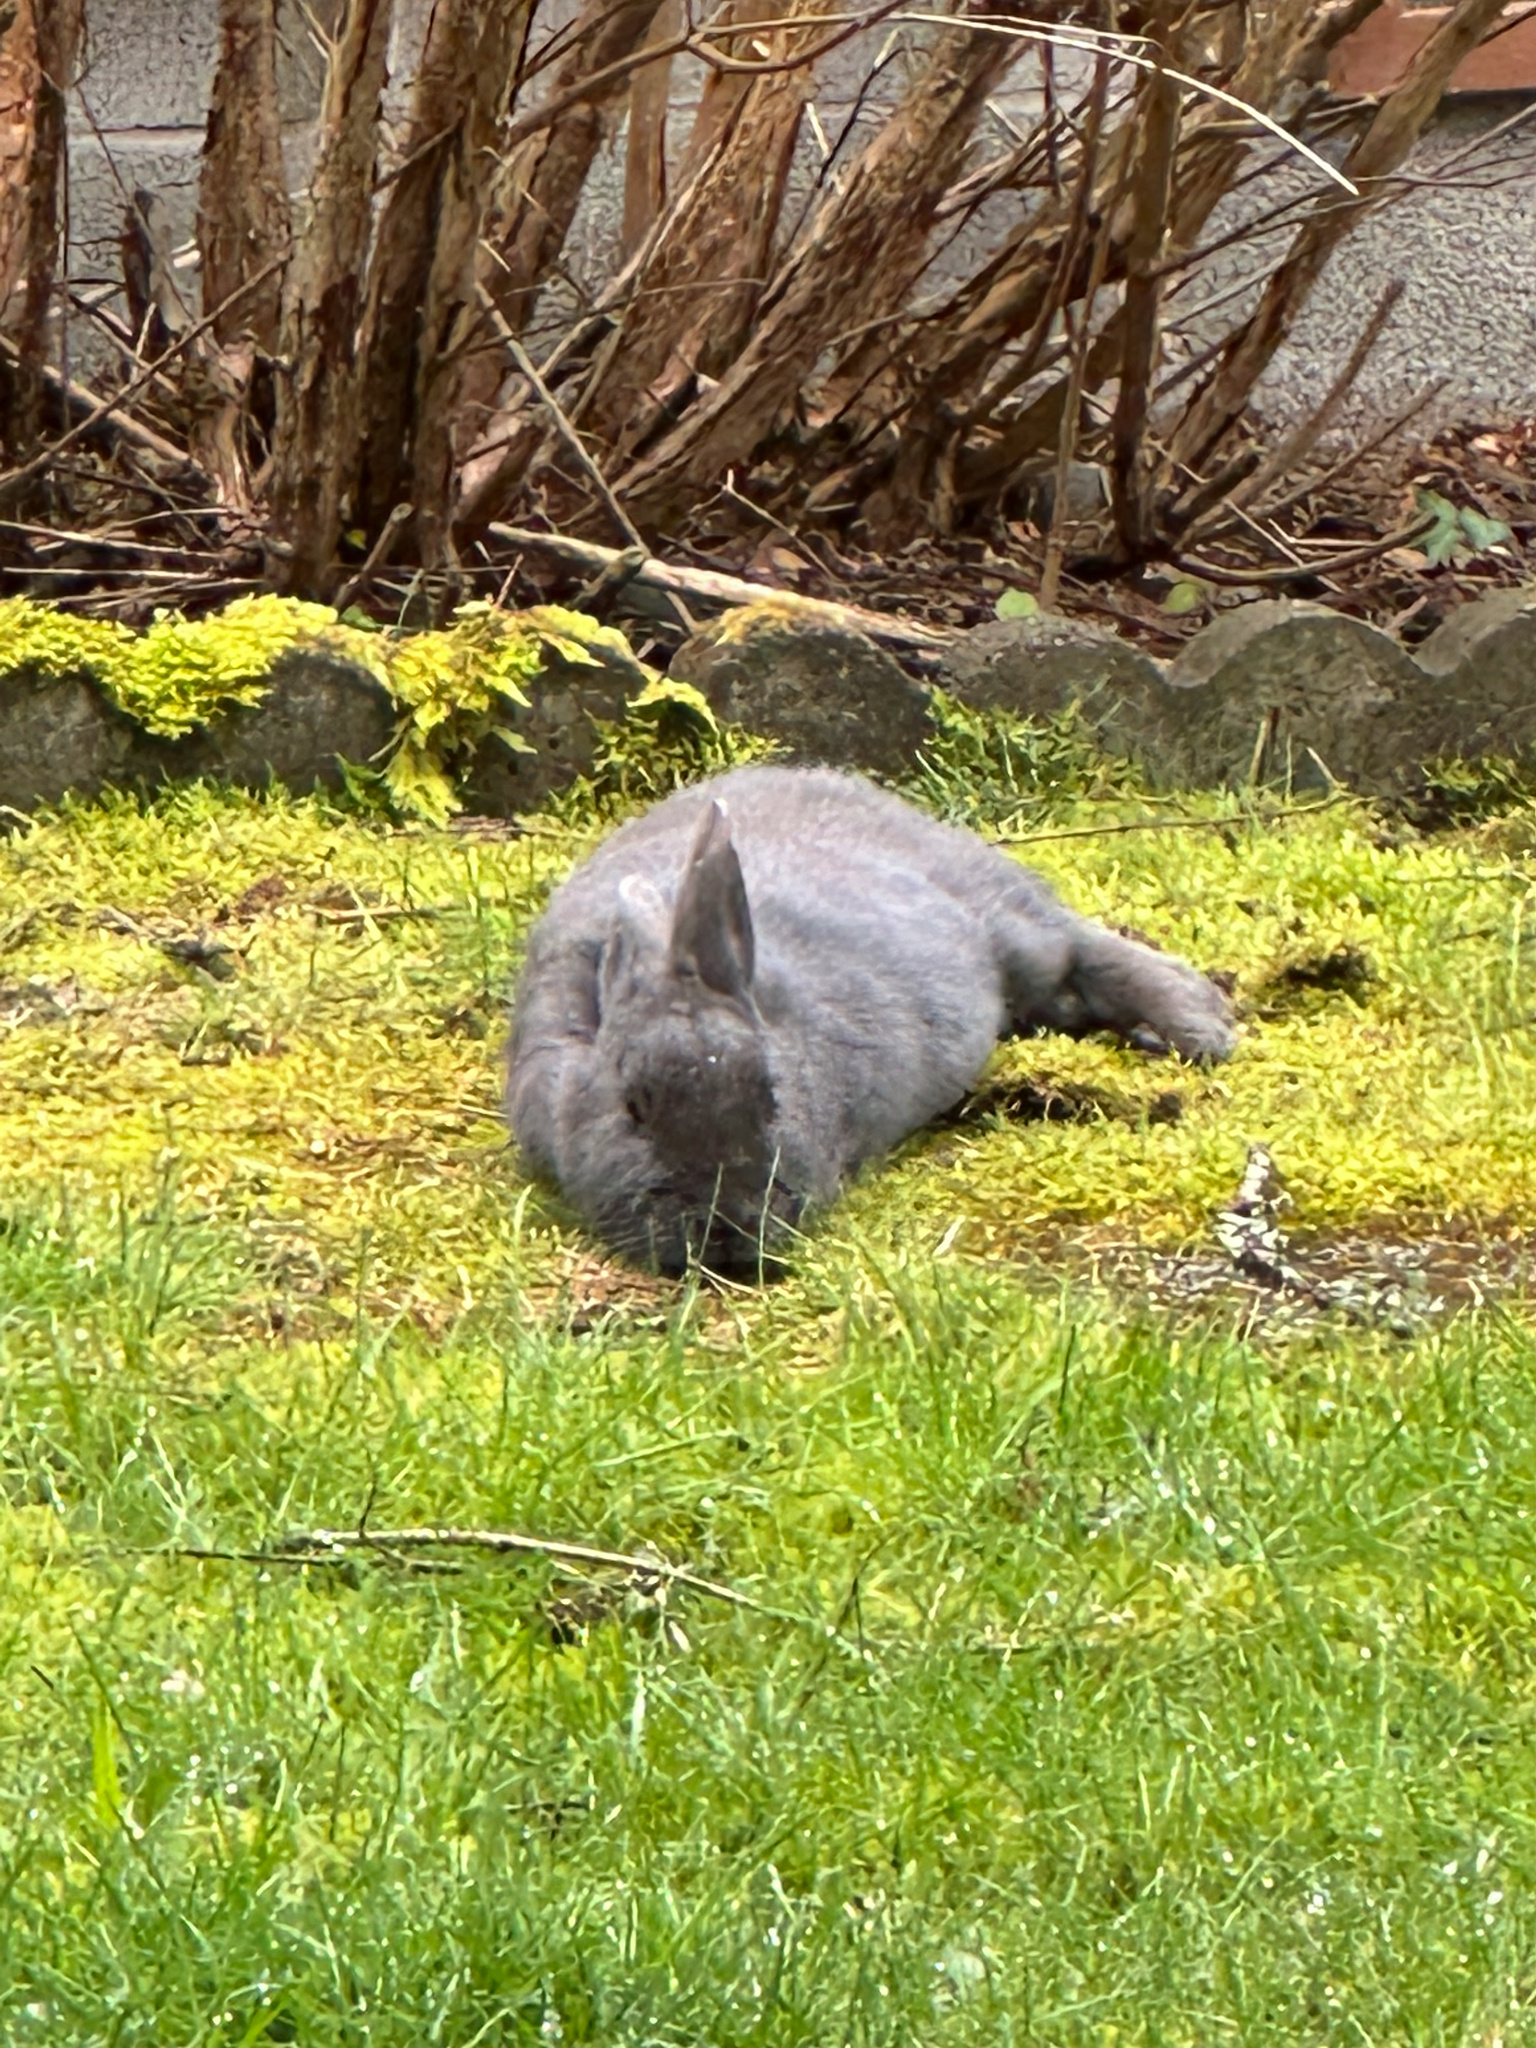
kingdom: Animalia
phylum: Chordata
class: Mammalia
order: Lagomorpha
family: Leporidae
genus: Oryctolagus
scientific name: Oryctolagus cuniculus
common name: European rabbit
